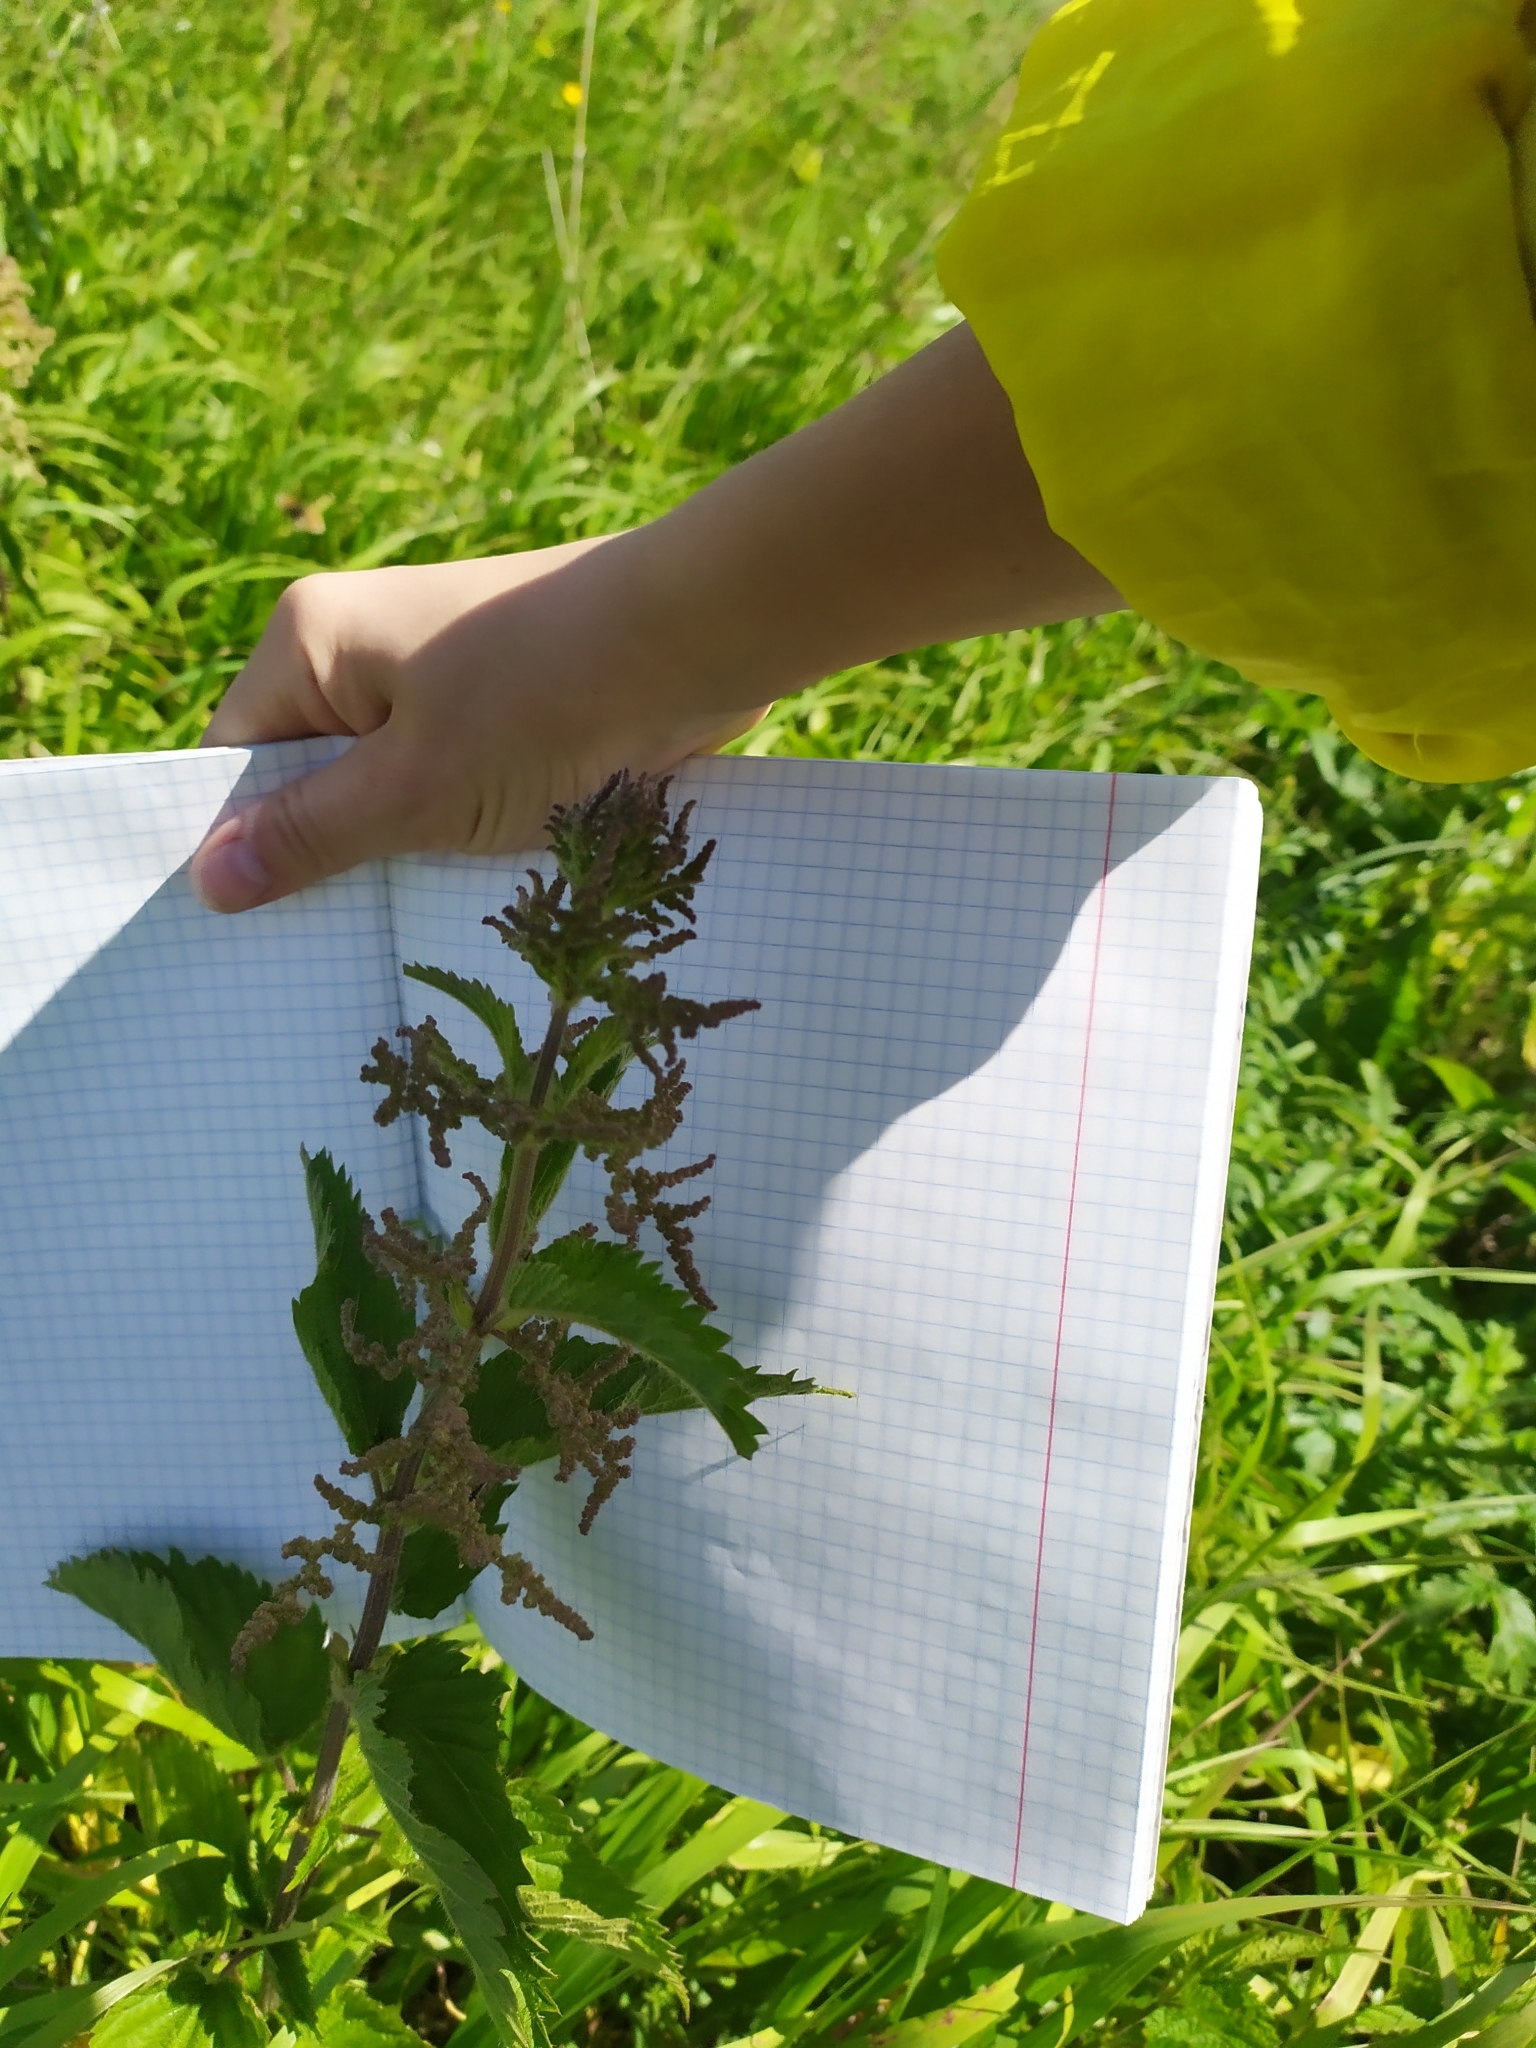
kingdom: Plantae
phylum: Tracheophyta
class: Magnoliopsida
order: Rosales
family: Urticaceae
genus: Urtica
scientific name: Urtica dioica
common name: Common nettle
